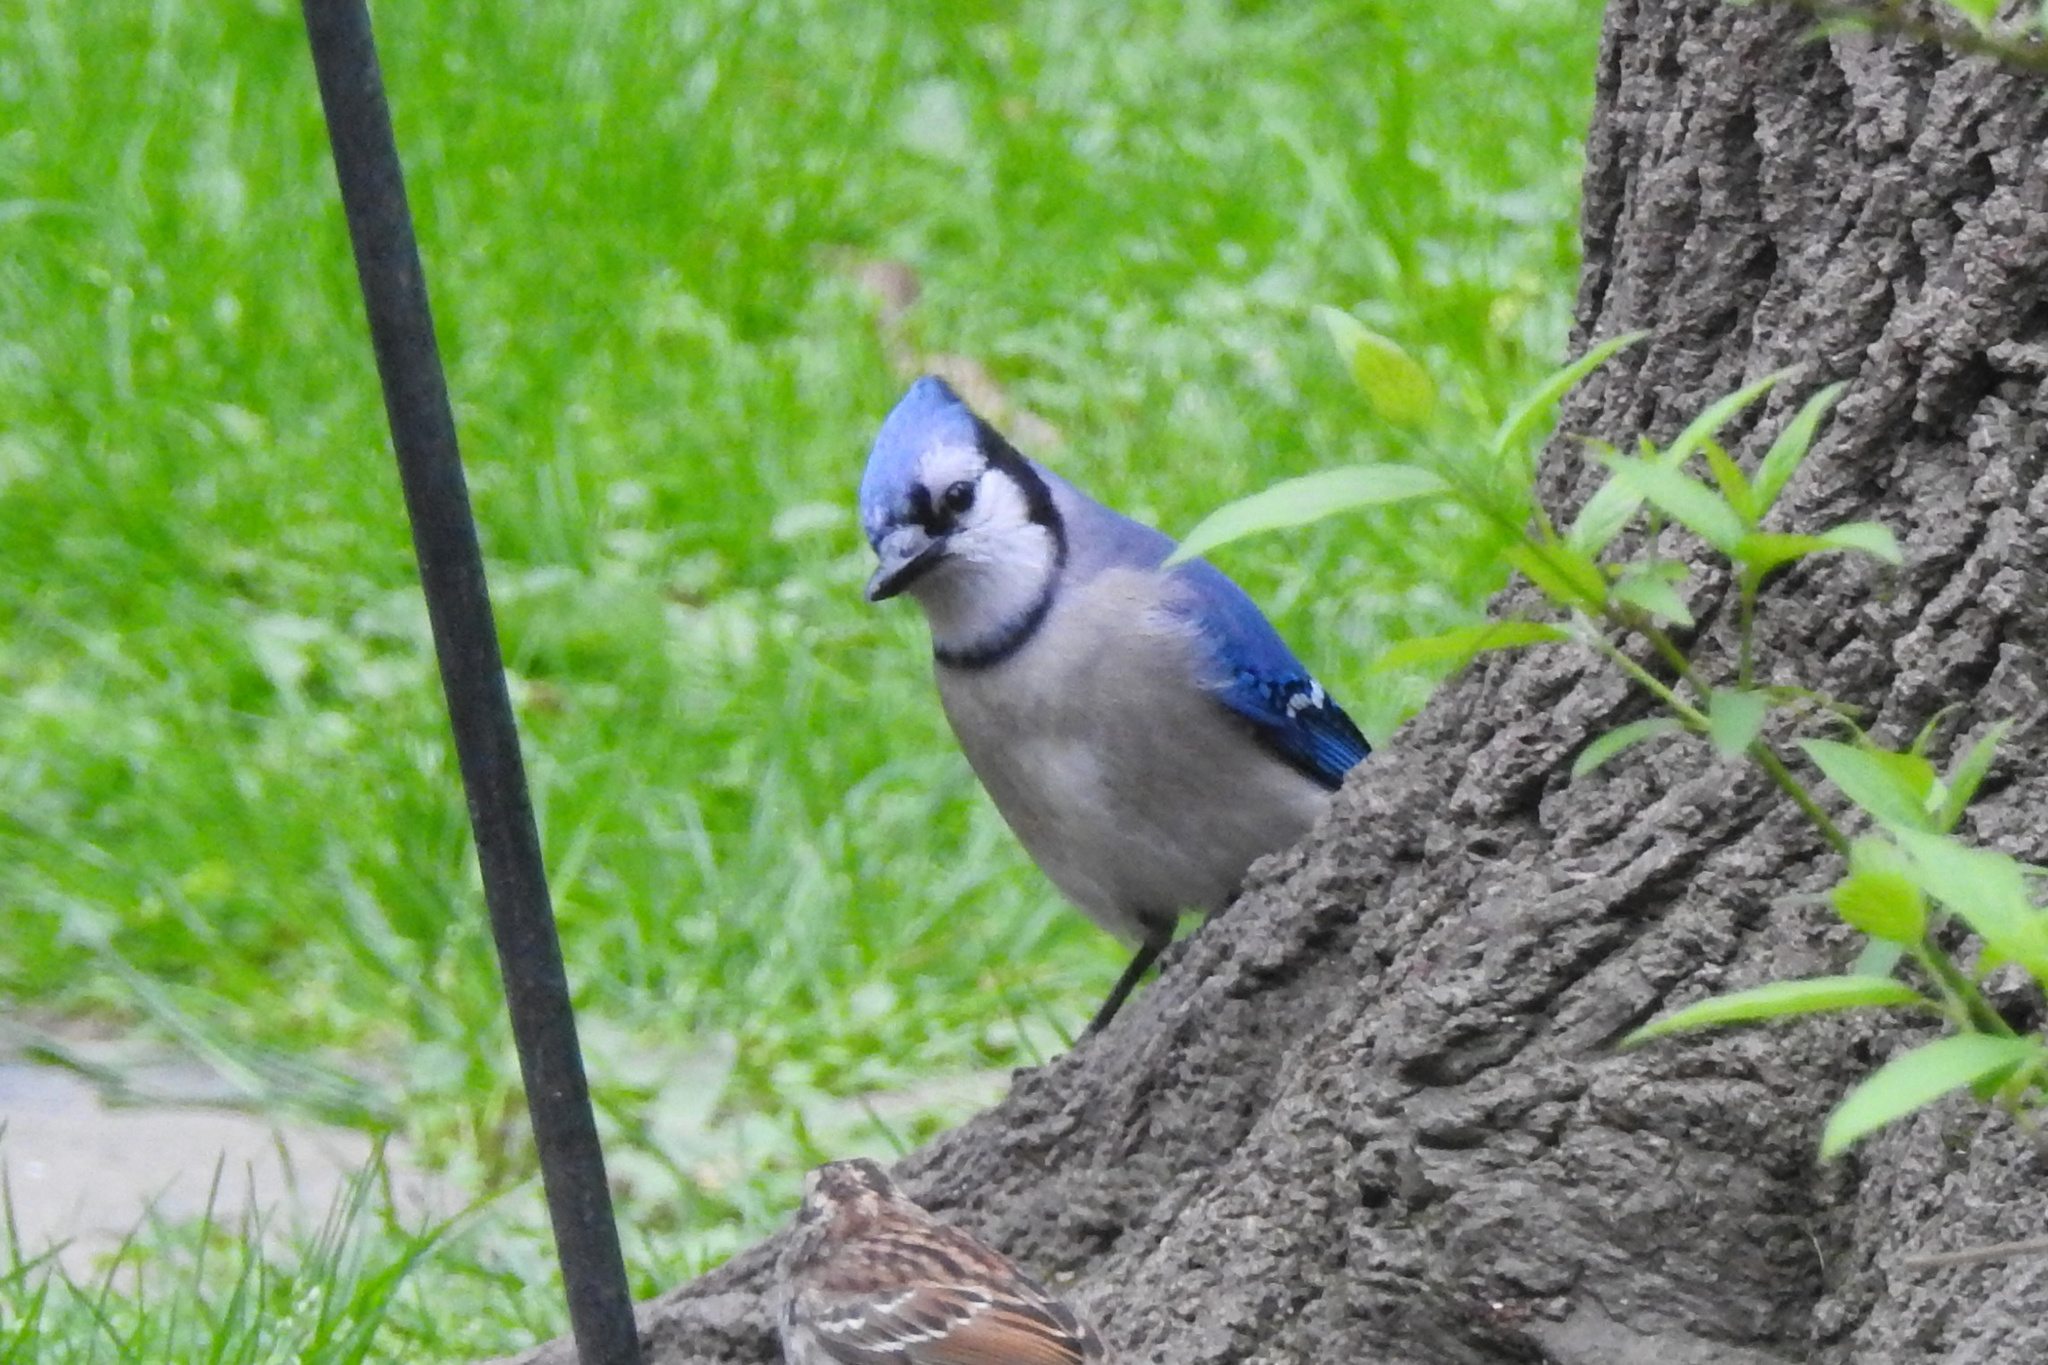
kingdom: Animalia
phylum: Chordata
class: Aves
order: Passeriformes
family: Corvidae
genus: Cyanocitta
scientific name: Cyanocitta cristata
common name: Blue jay
